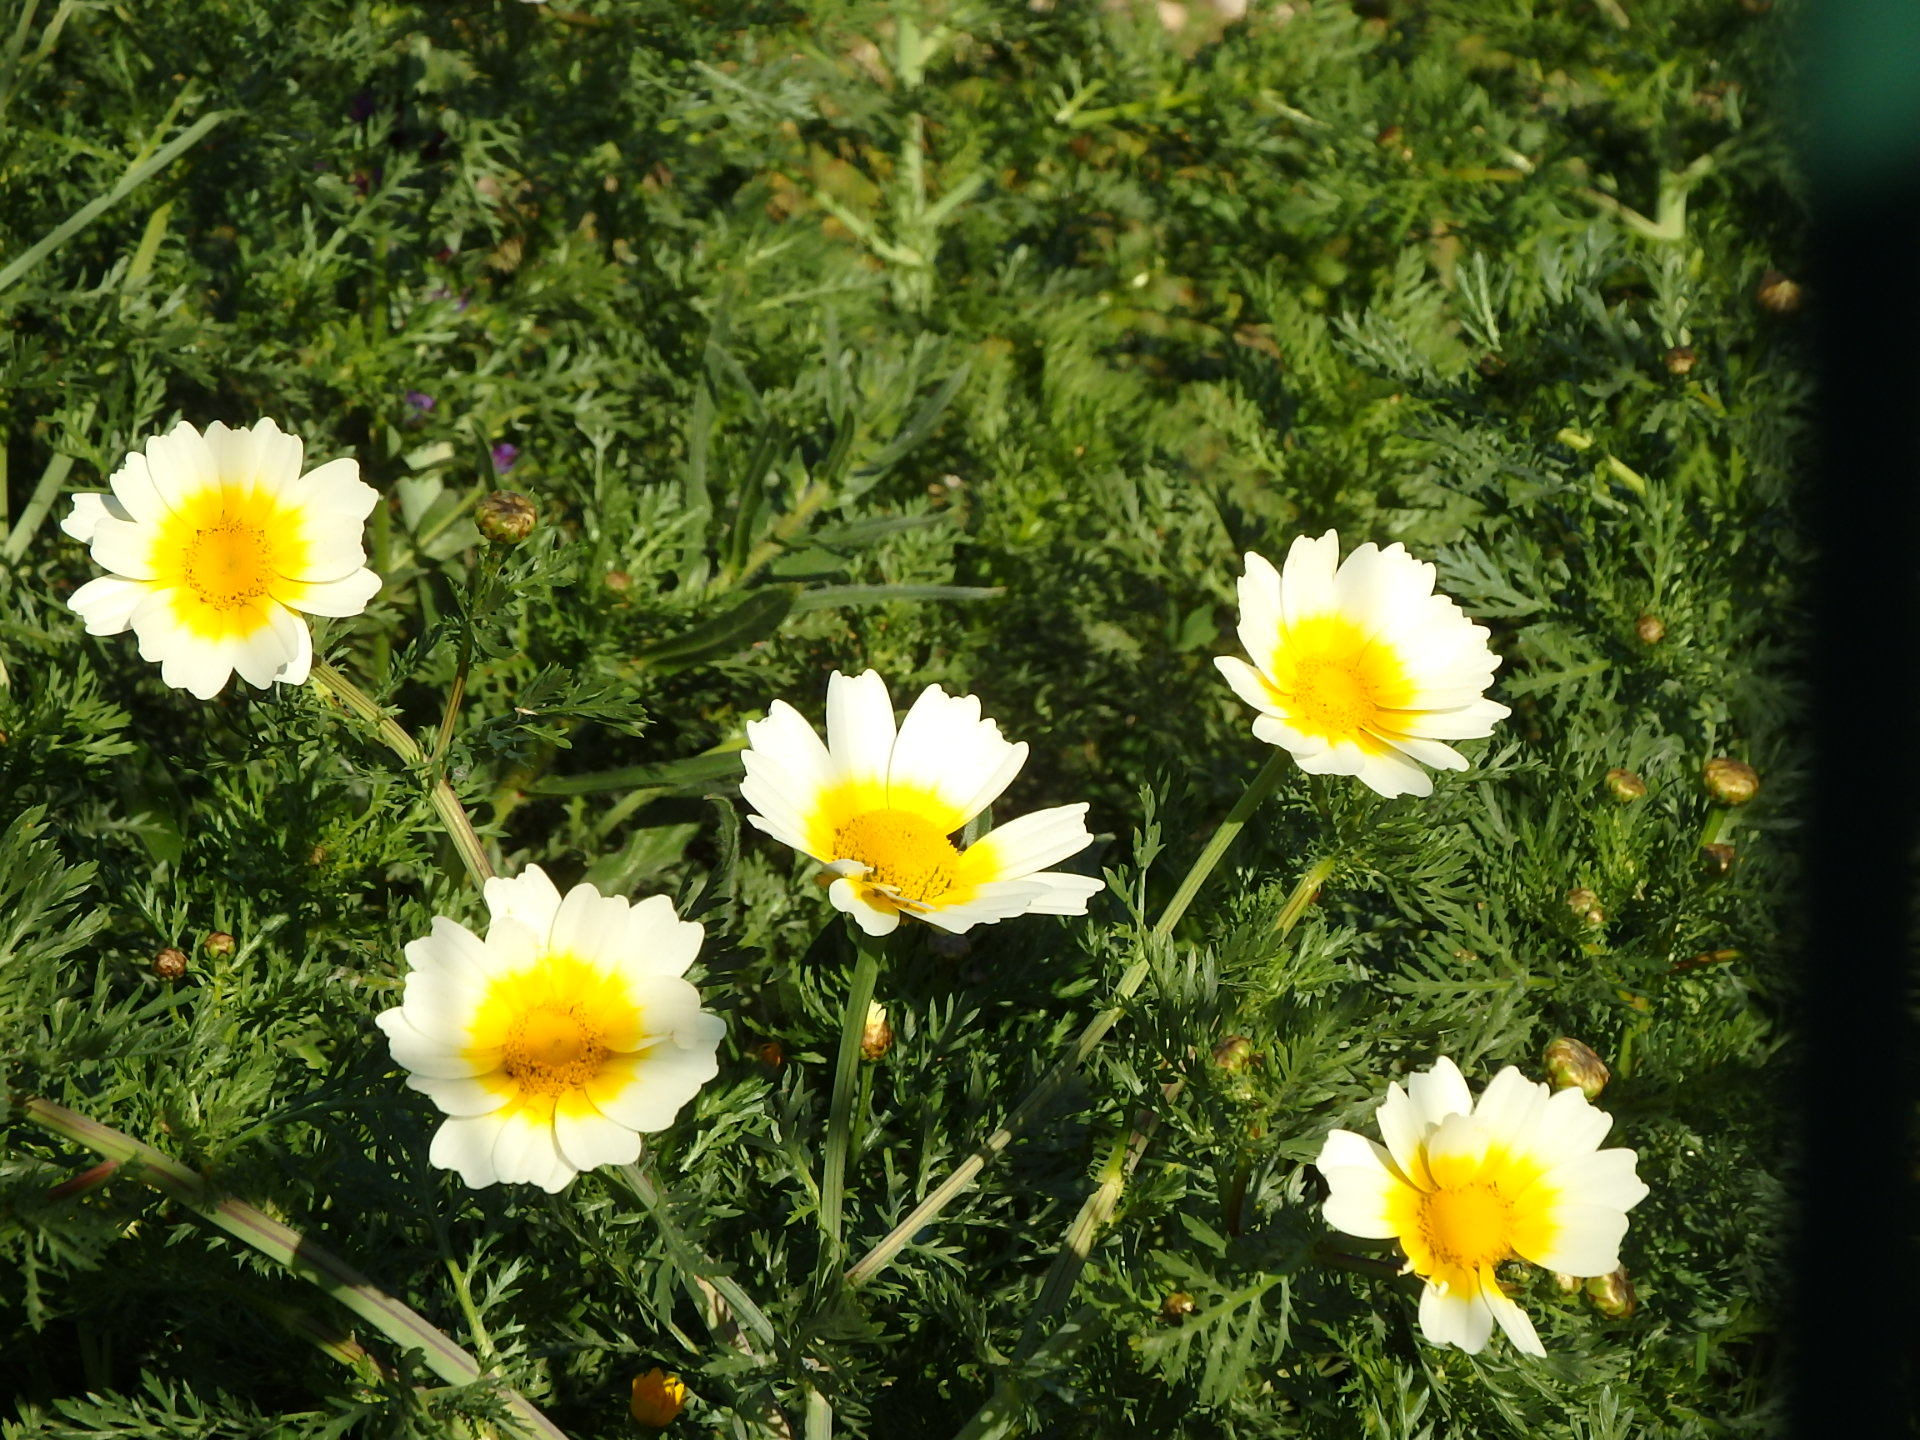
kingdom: Plantae
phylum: Tracheophyta
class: Magnoliopsida
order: Asterales
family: Asteraceae
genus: Glebionis
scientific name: Glebionis coronaria
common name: Crowndaisy
